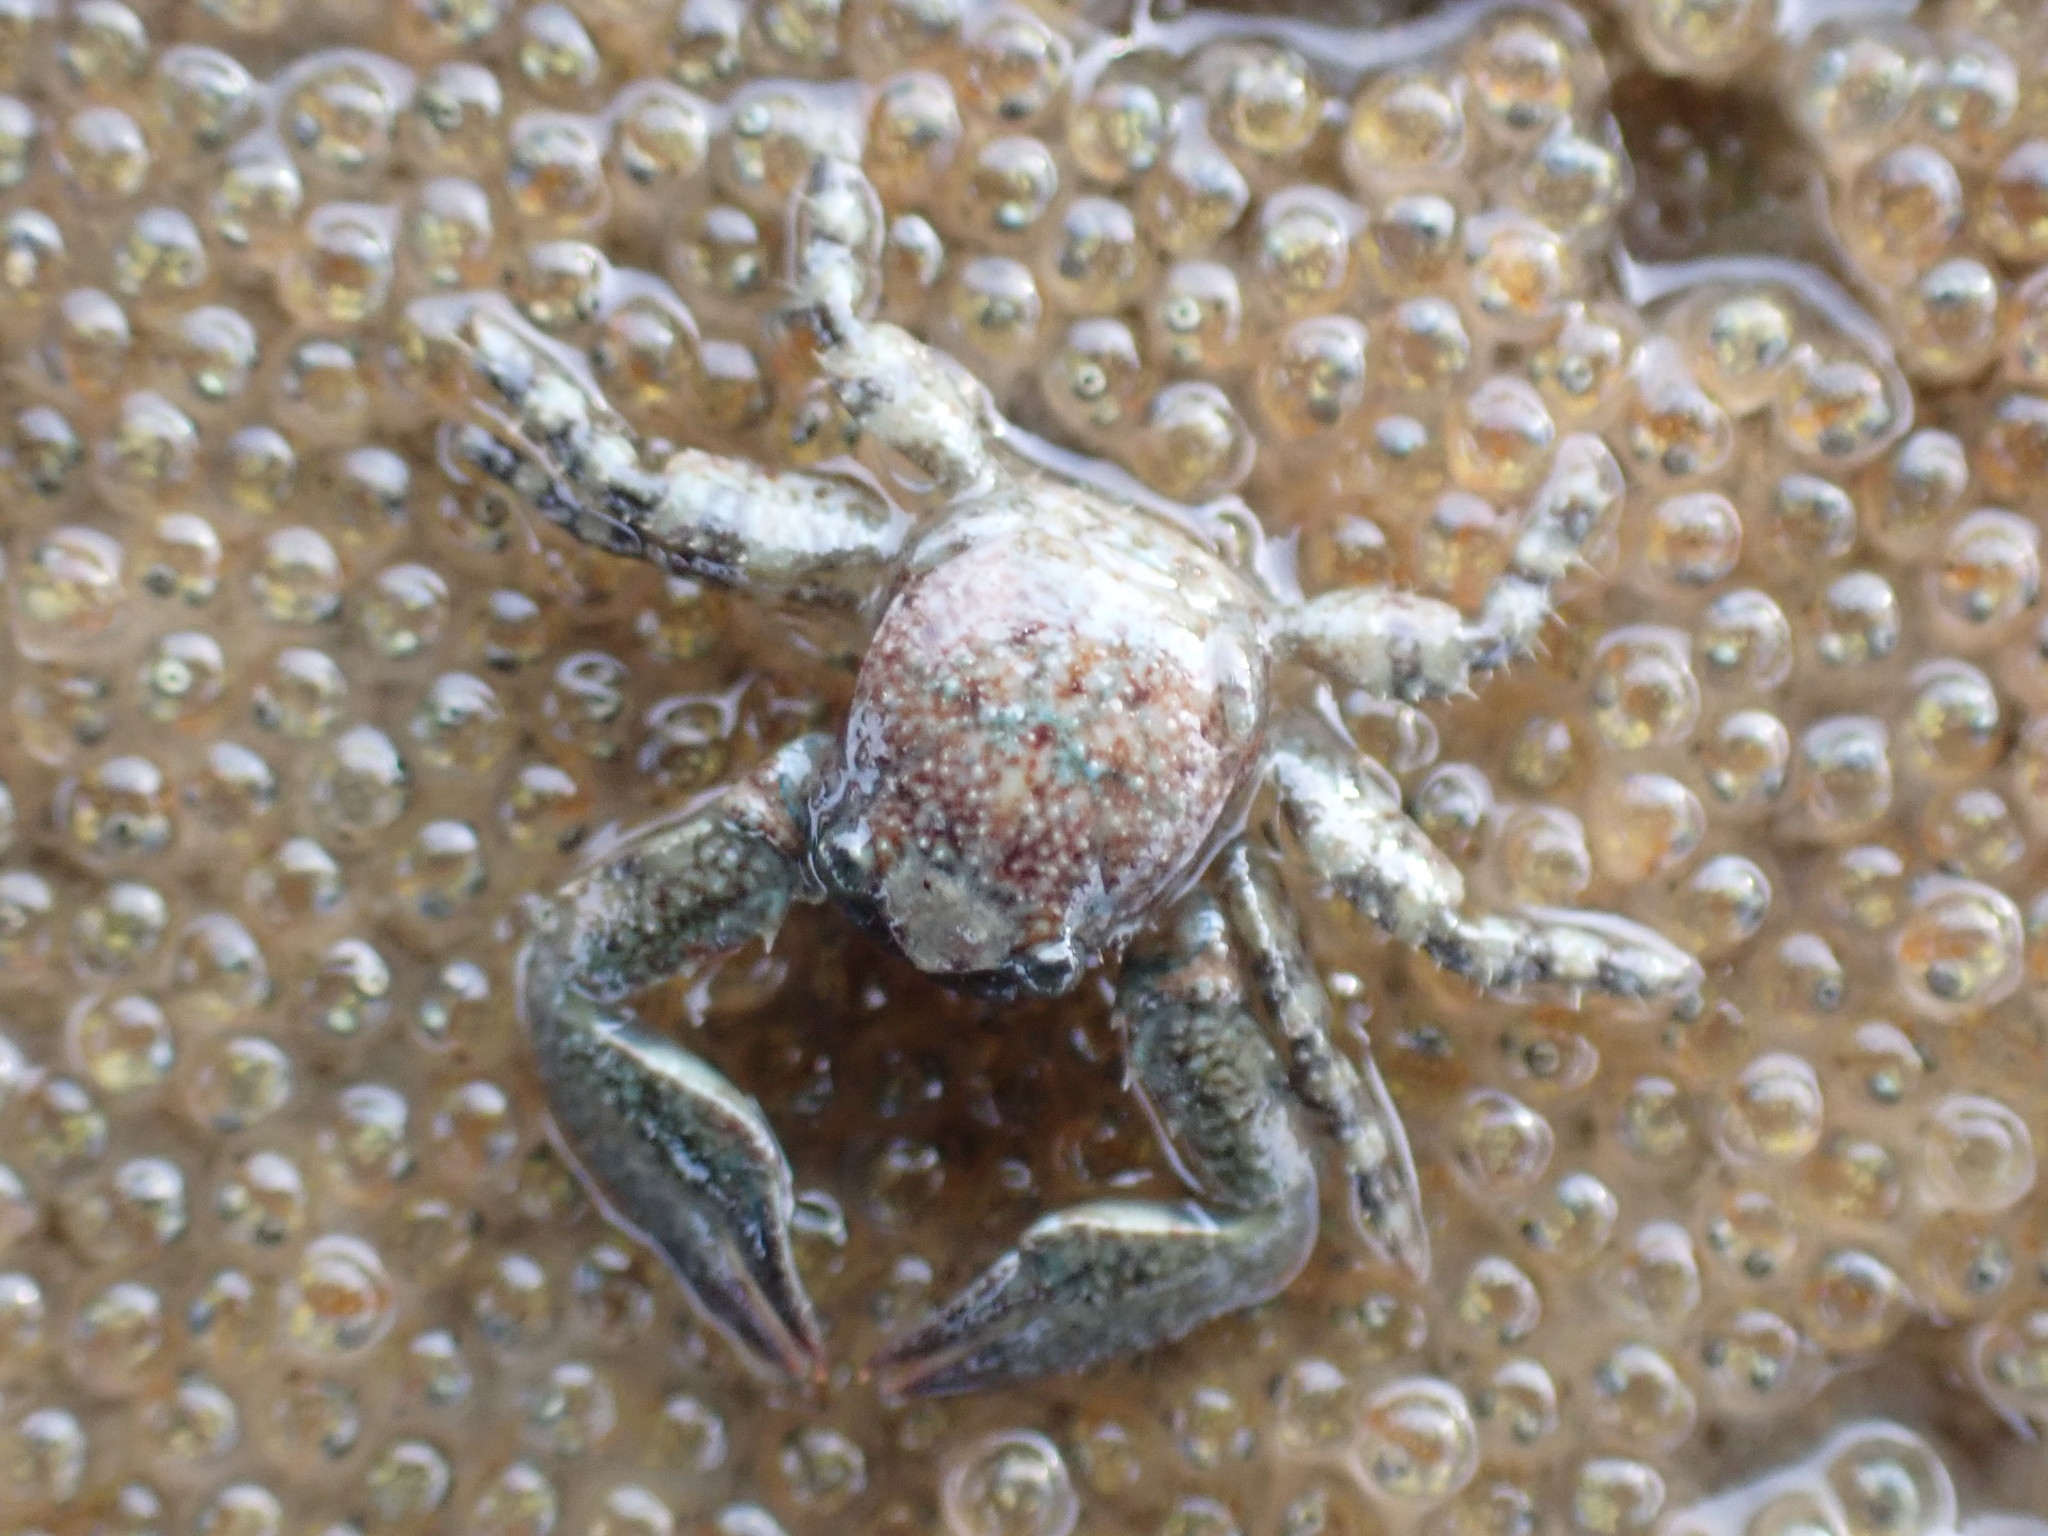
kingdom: Animalia
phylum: Arthropoda
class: Malacostraca
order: Decapoda
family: Porcellanidae
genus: Petrolisthes
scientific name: Petrolisthes elongatus
